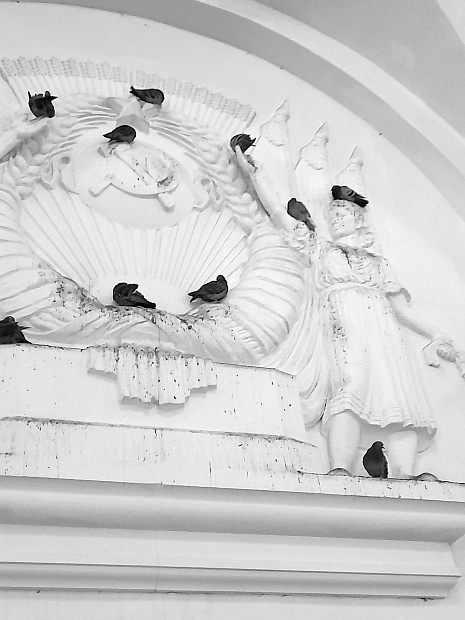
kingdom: Animalia
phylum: Chordata
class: Aves
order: Columbiformes
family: Columbidae
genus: Columba
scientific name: Columba livia
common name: Rock pigeon
